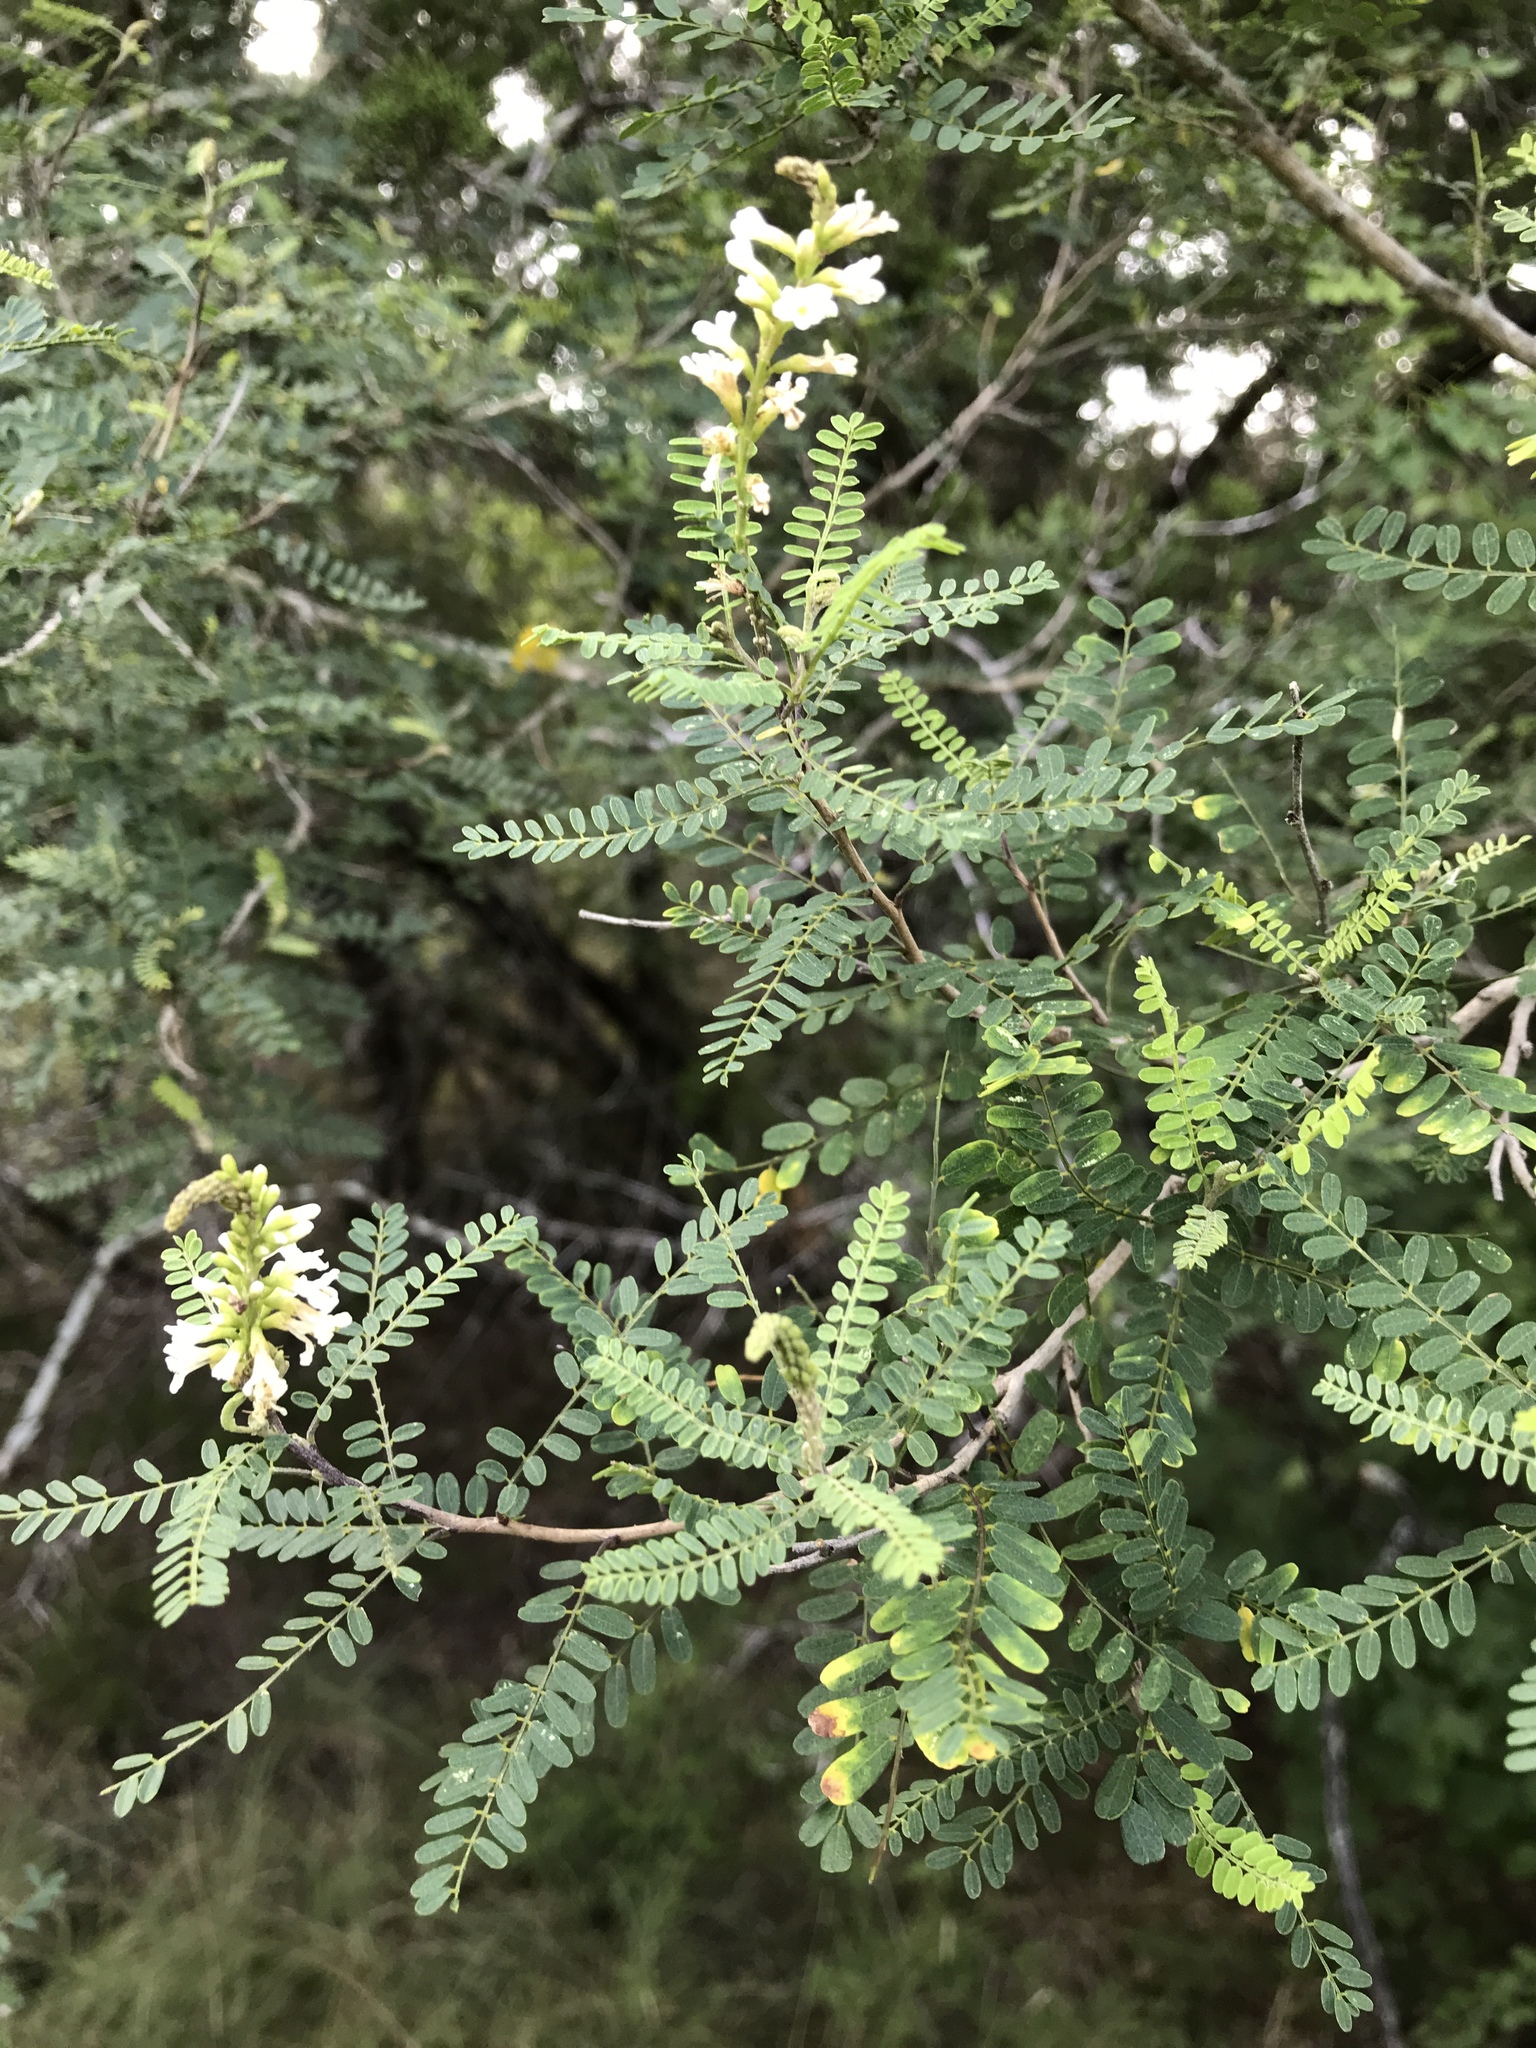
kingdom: Plantae
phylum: Tracheophyta
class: Magnoliopsida
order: Fabales
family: Fabaceae
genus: Eysenhardtia
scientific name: Eysenhardtia texana
